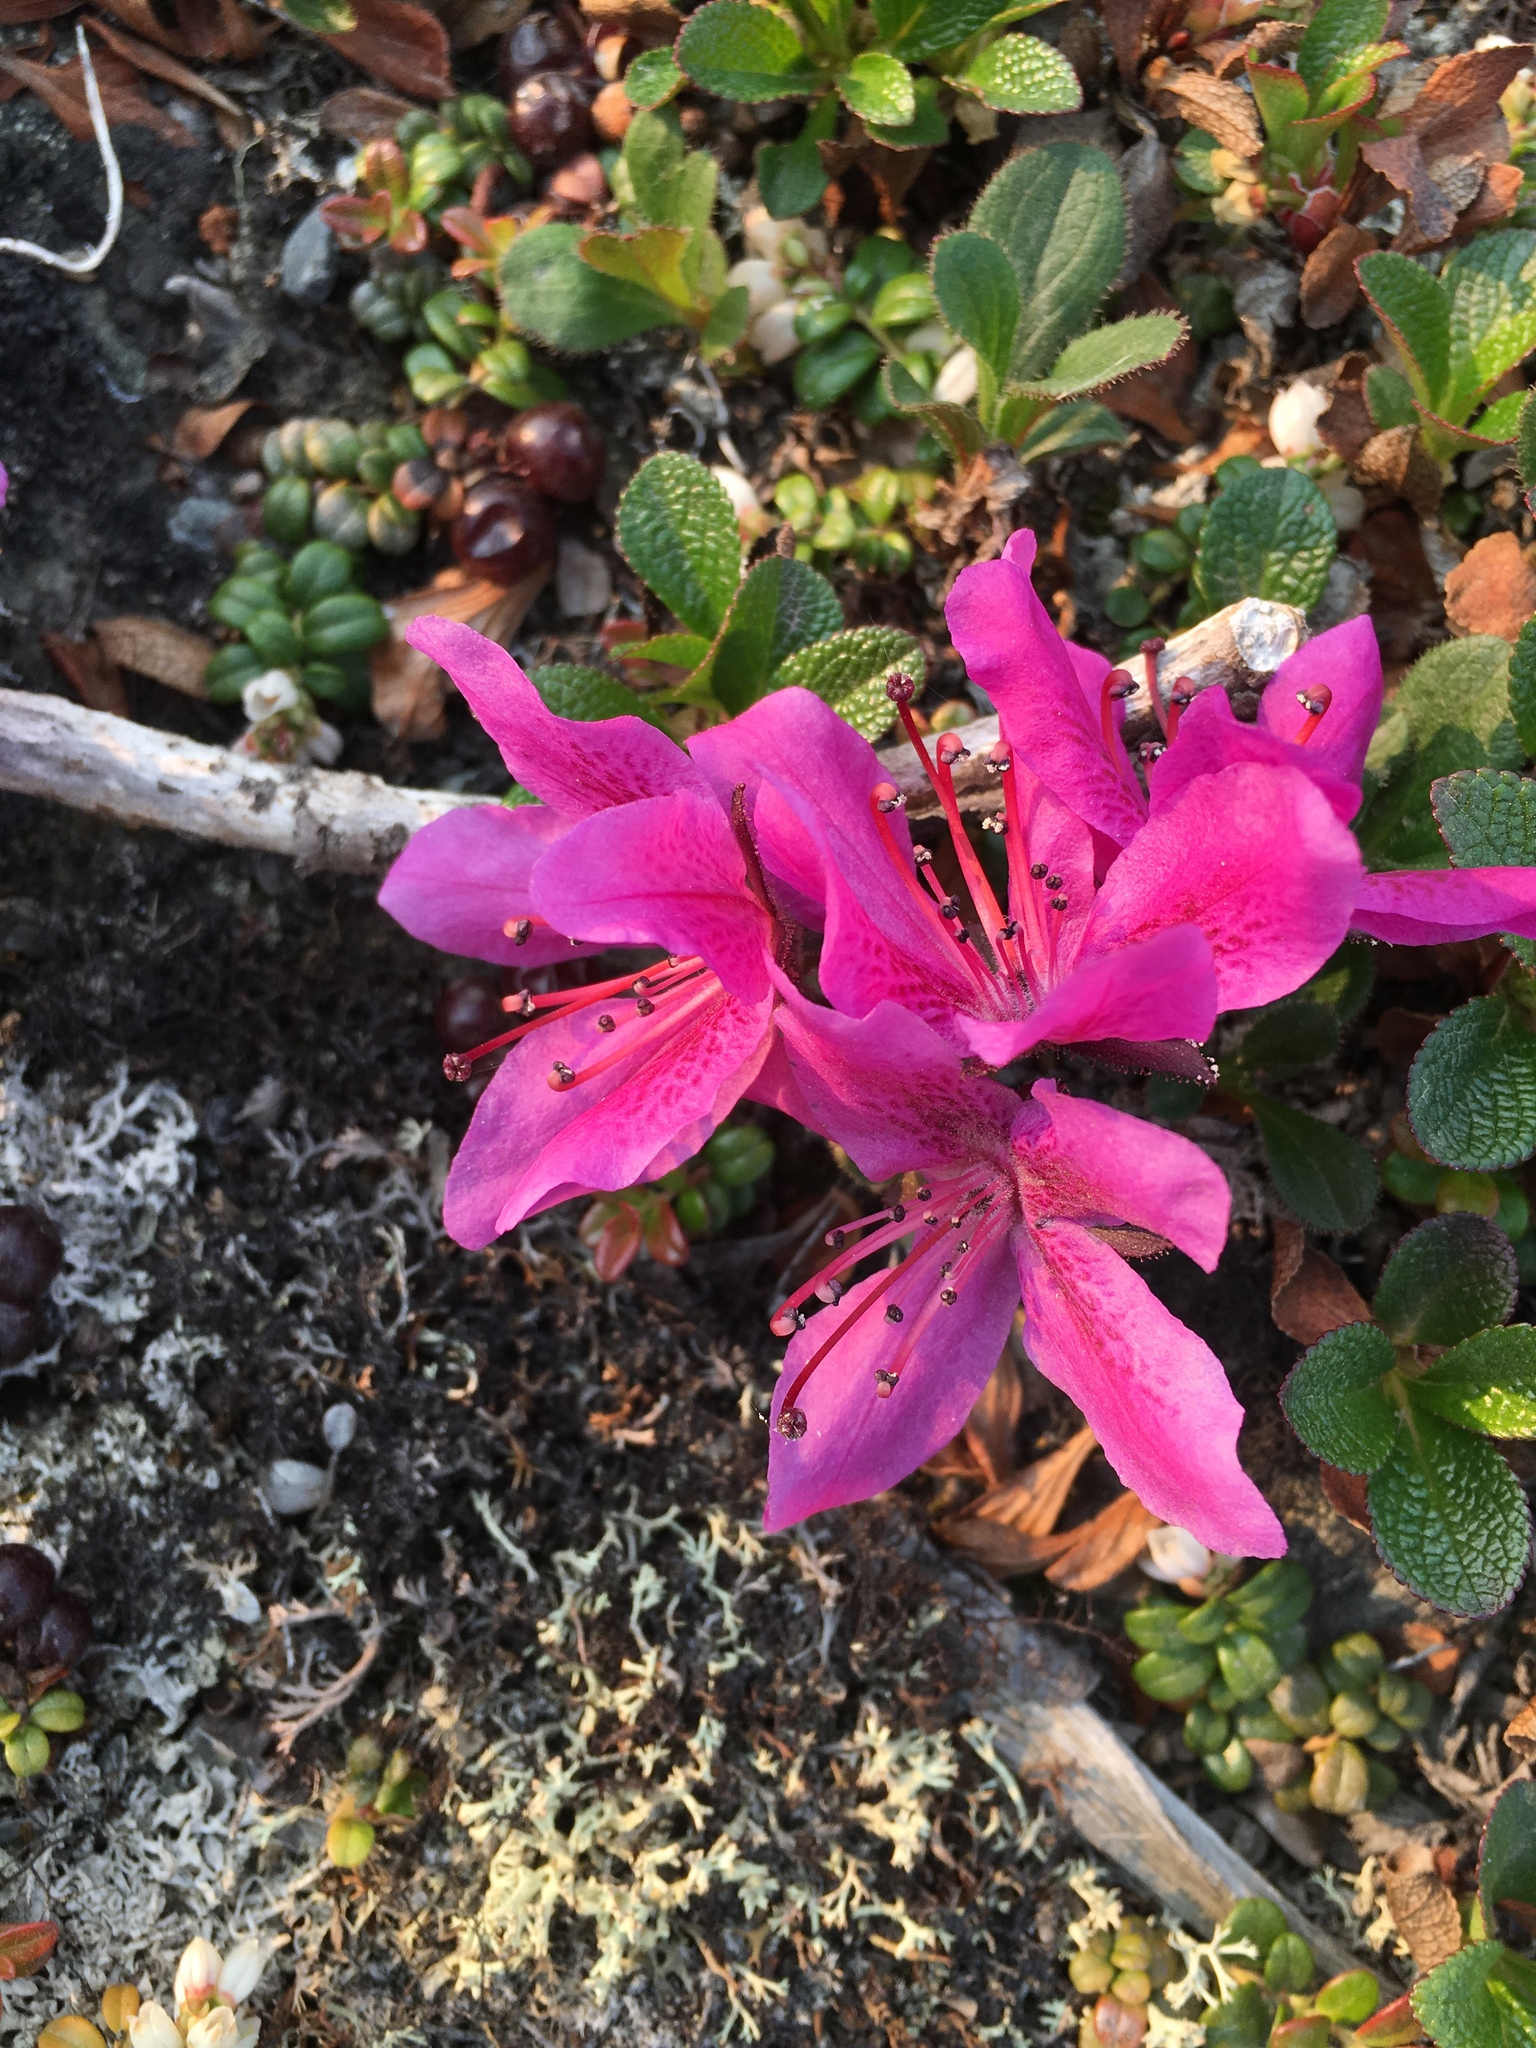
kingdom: Plantae
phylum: Tracheophyta
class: Magnoliopsida
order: Ericales
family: Ericaceae
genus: Rhododendron
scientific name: Rhododendron glandulosum
